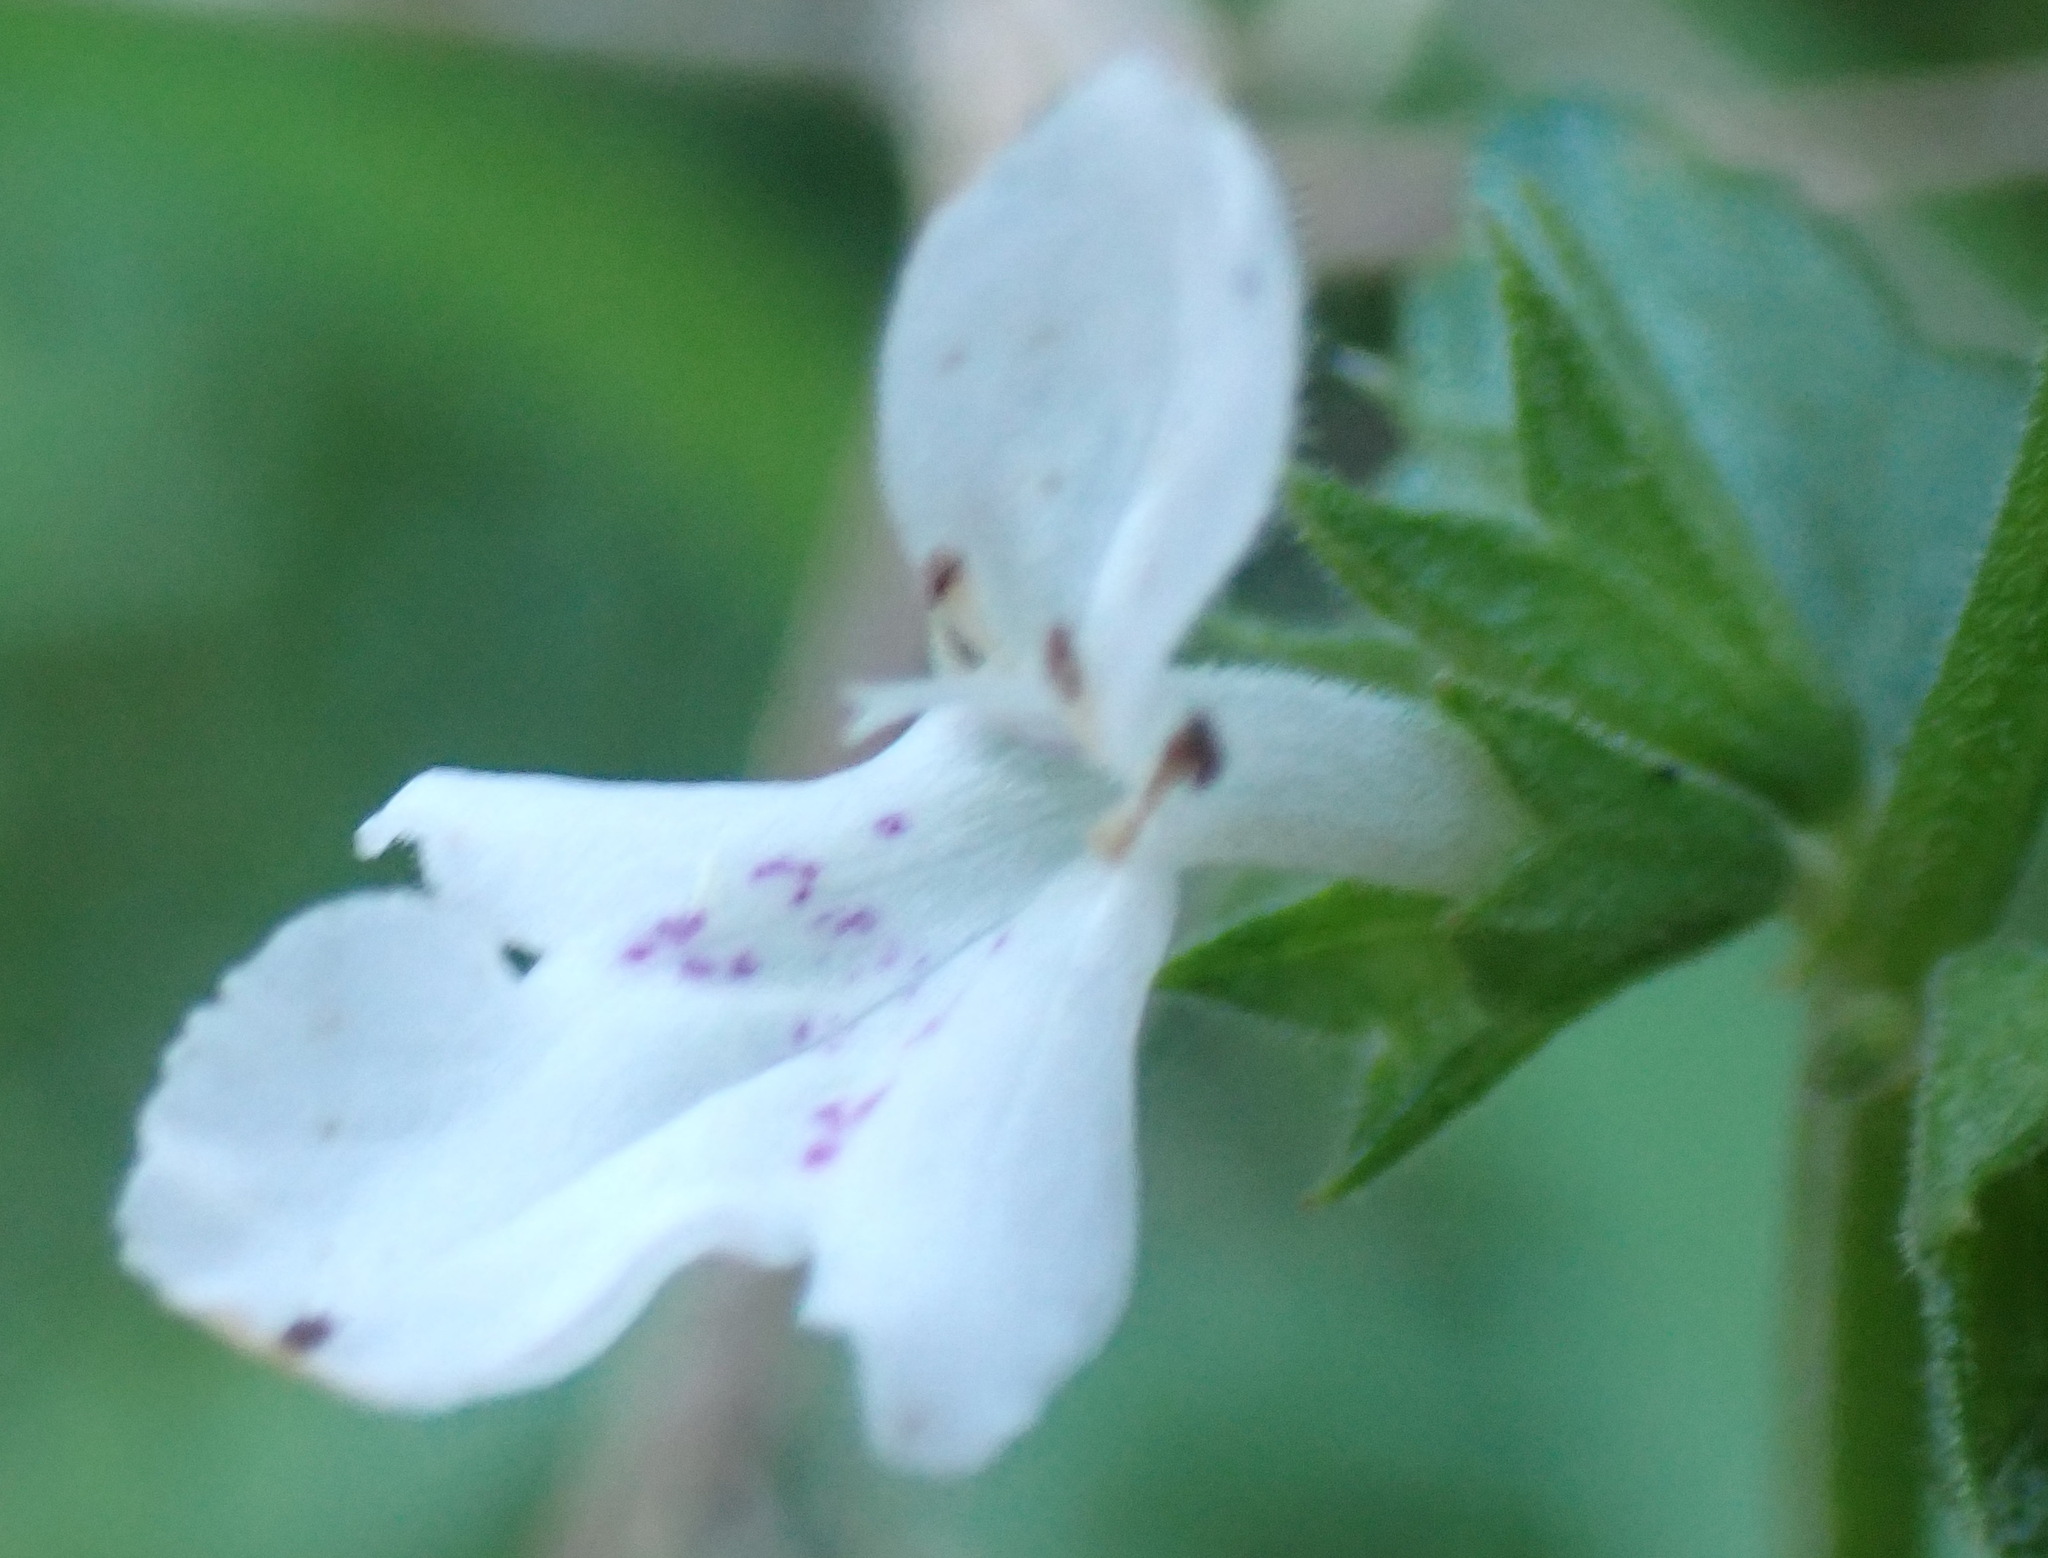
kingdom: Plantae
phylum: Tracheophyta
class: Magnoliopsida
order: Lamiales
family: Lamiaceae
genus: Stachys
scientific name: Stachys aethiopica
